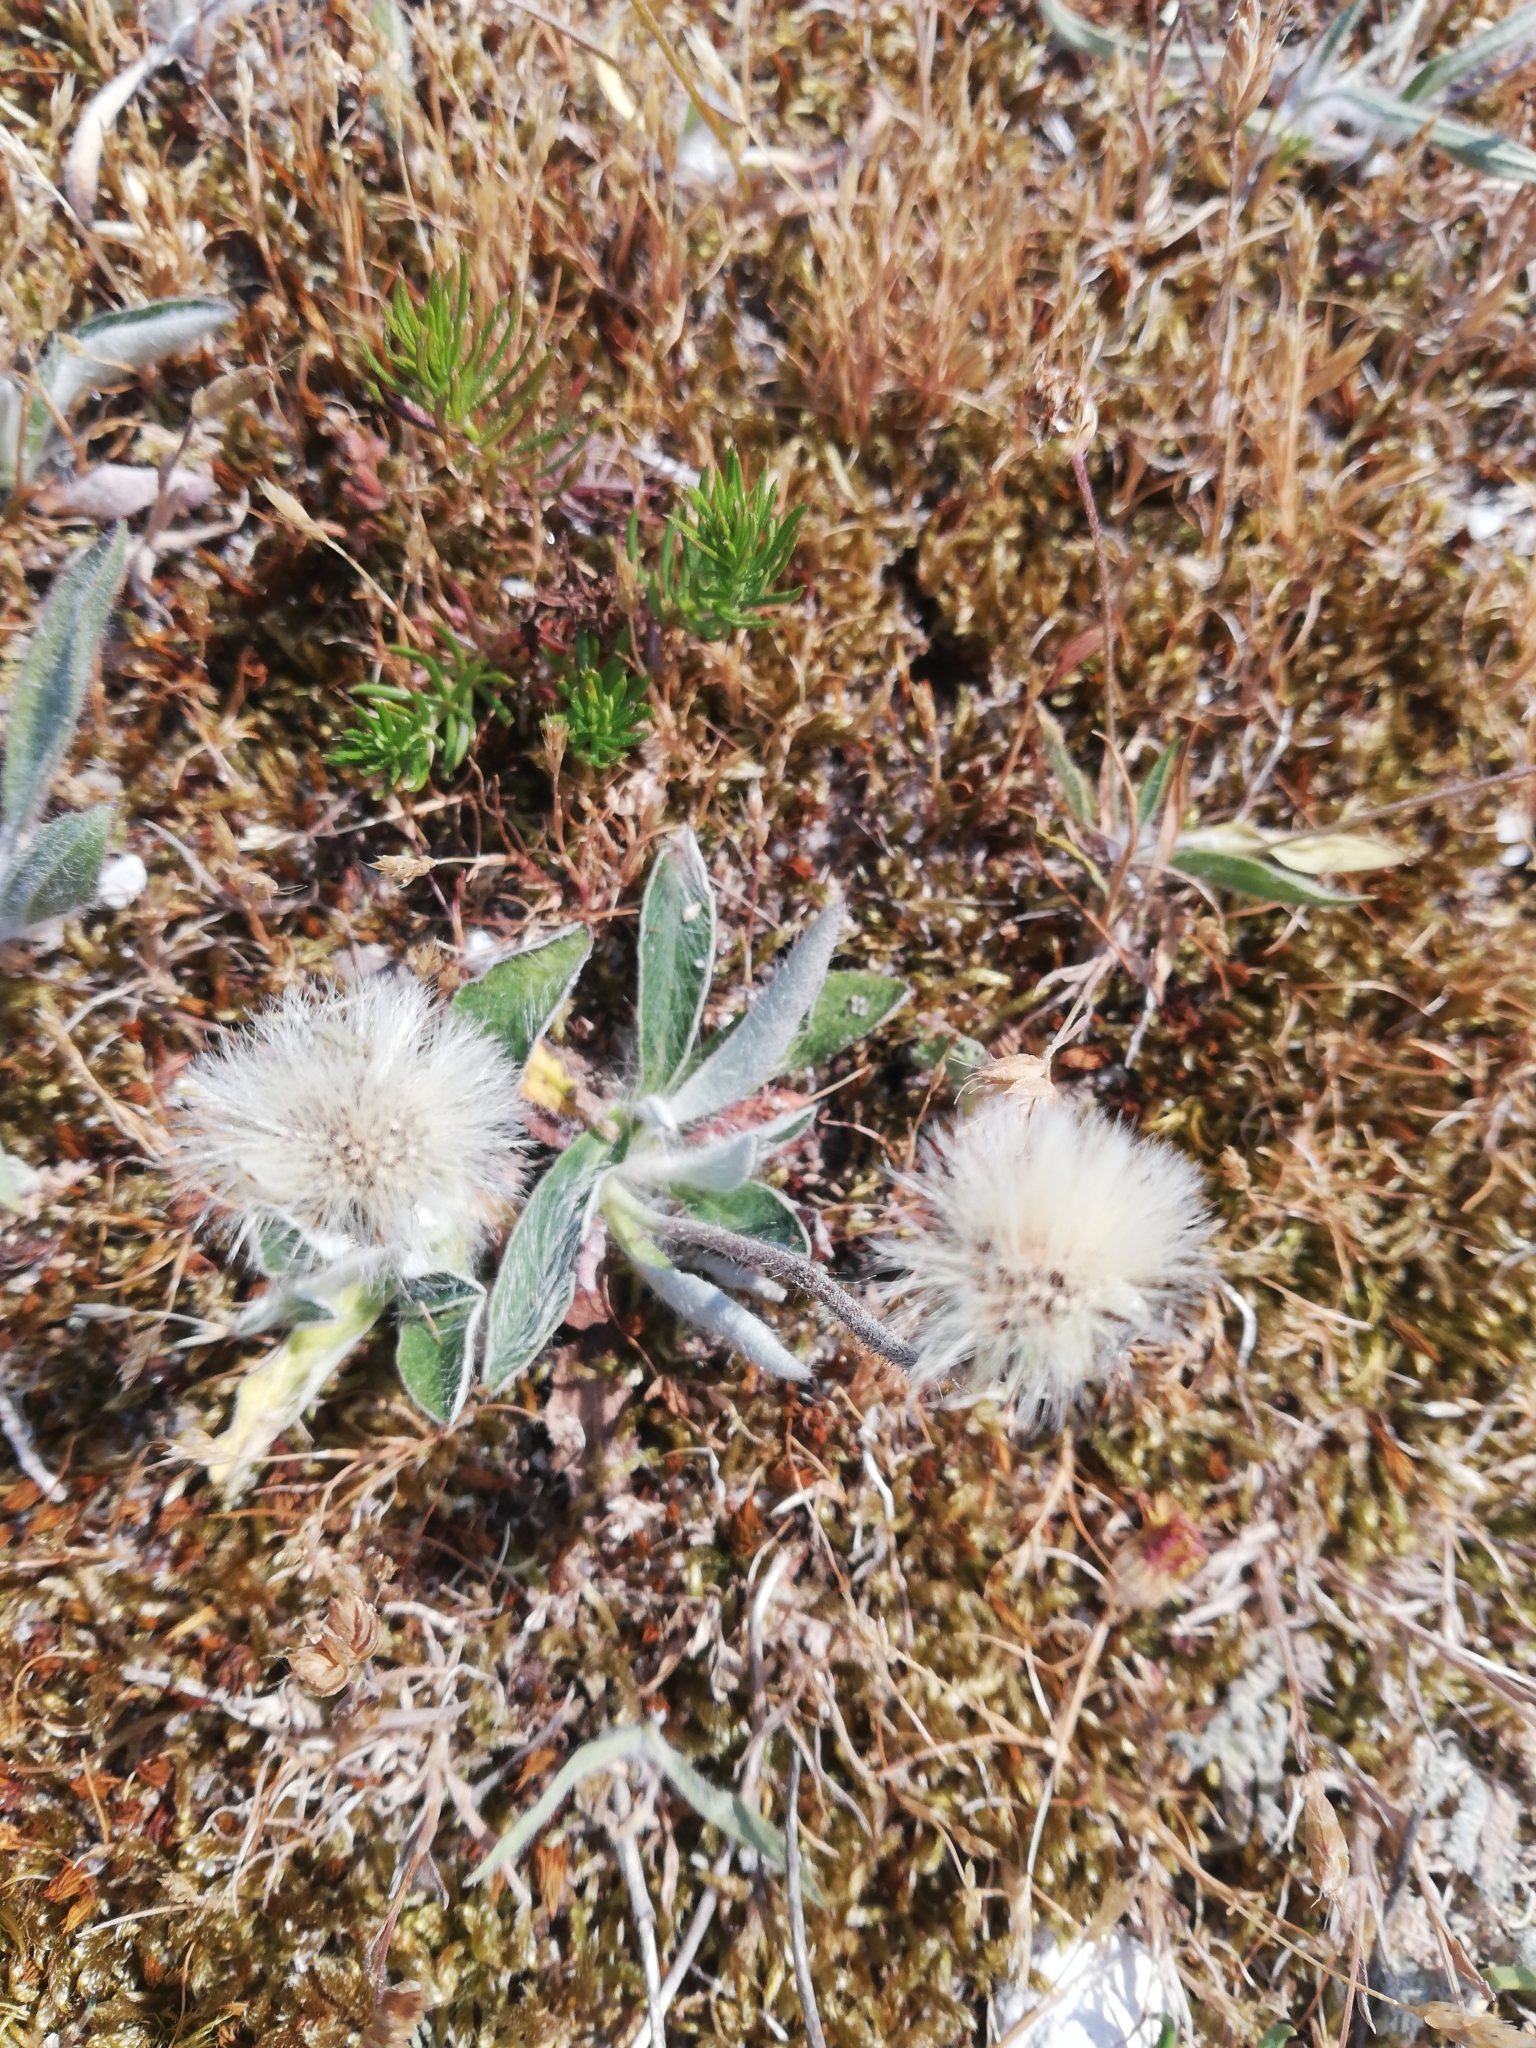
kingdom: Plantae
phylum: Tracheophyta
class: Magnoliopsida
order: Asterales
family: Asteraceae
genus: Pilosella
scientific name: Pilosella officinarum
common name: Mouse-ear hawkweed
